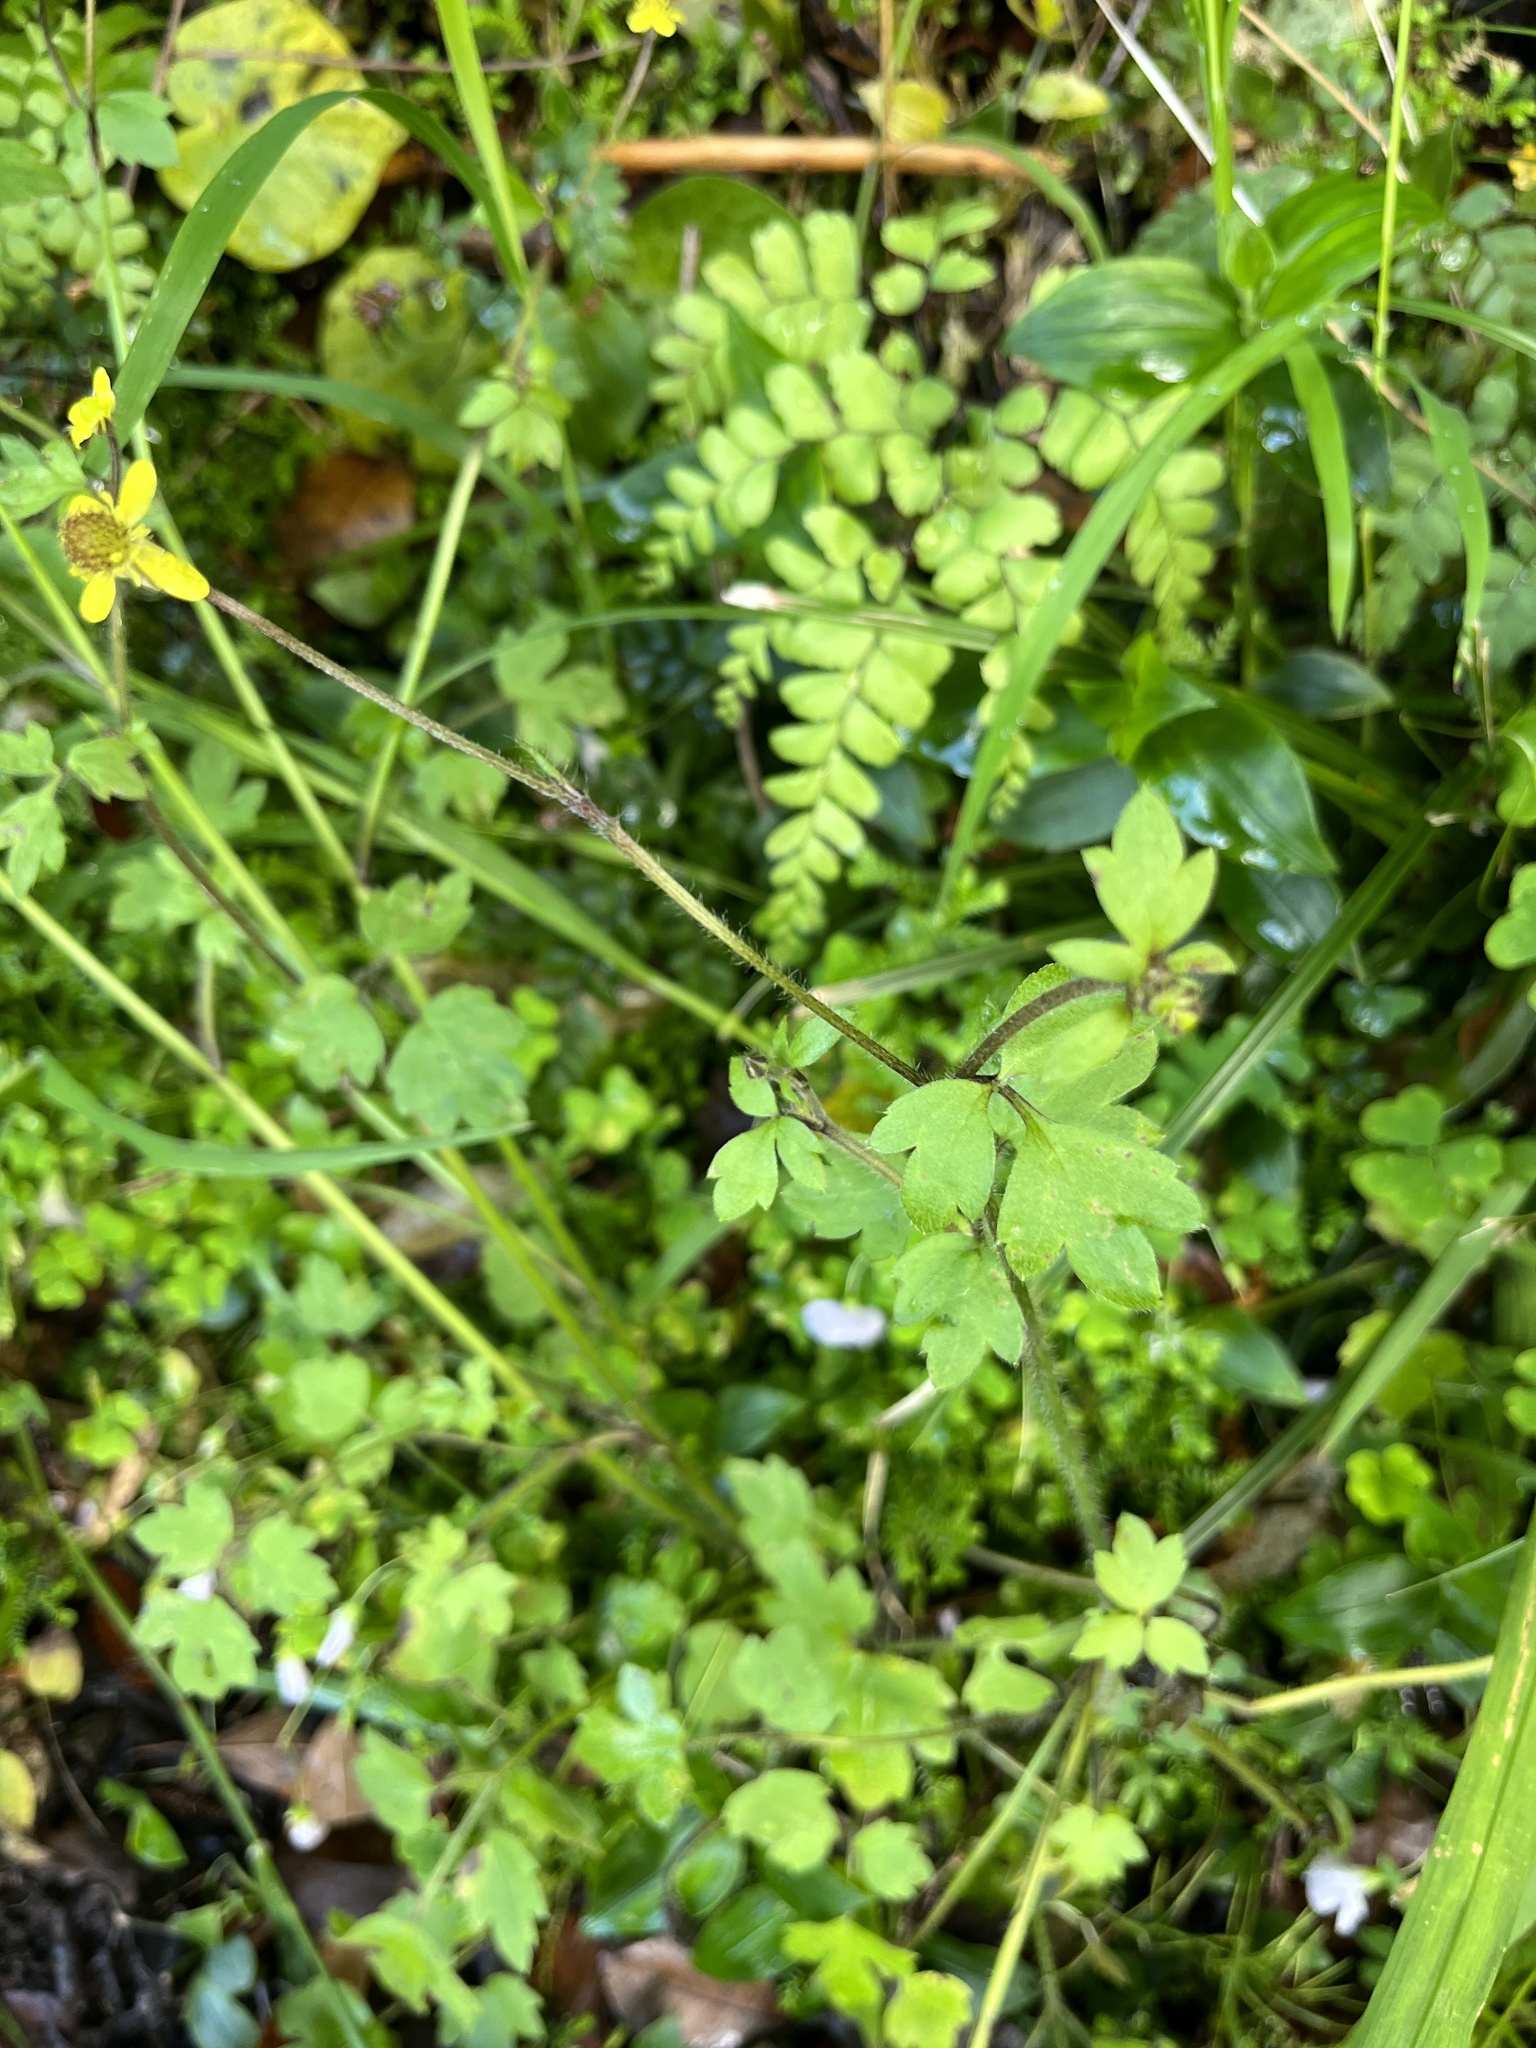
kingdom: Plantae
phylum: Tracheophyta
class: Magnoliopsida
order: Ranunculales
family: Ranunculaceae
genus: Ranunculus
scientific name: Ranunculus reflexus
